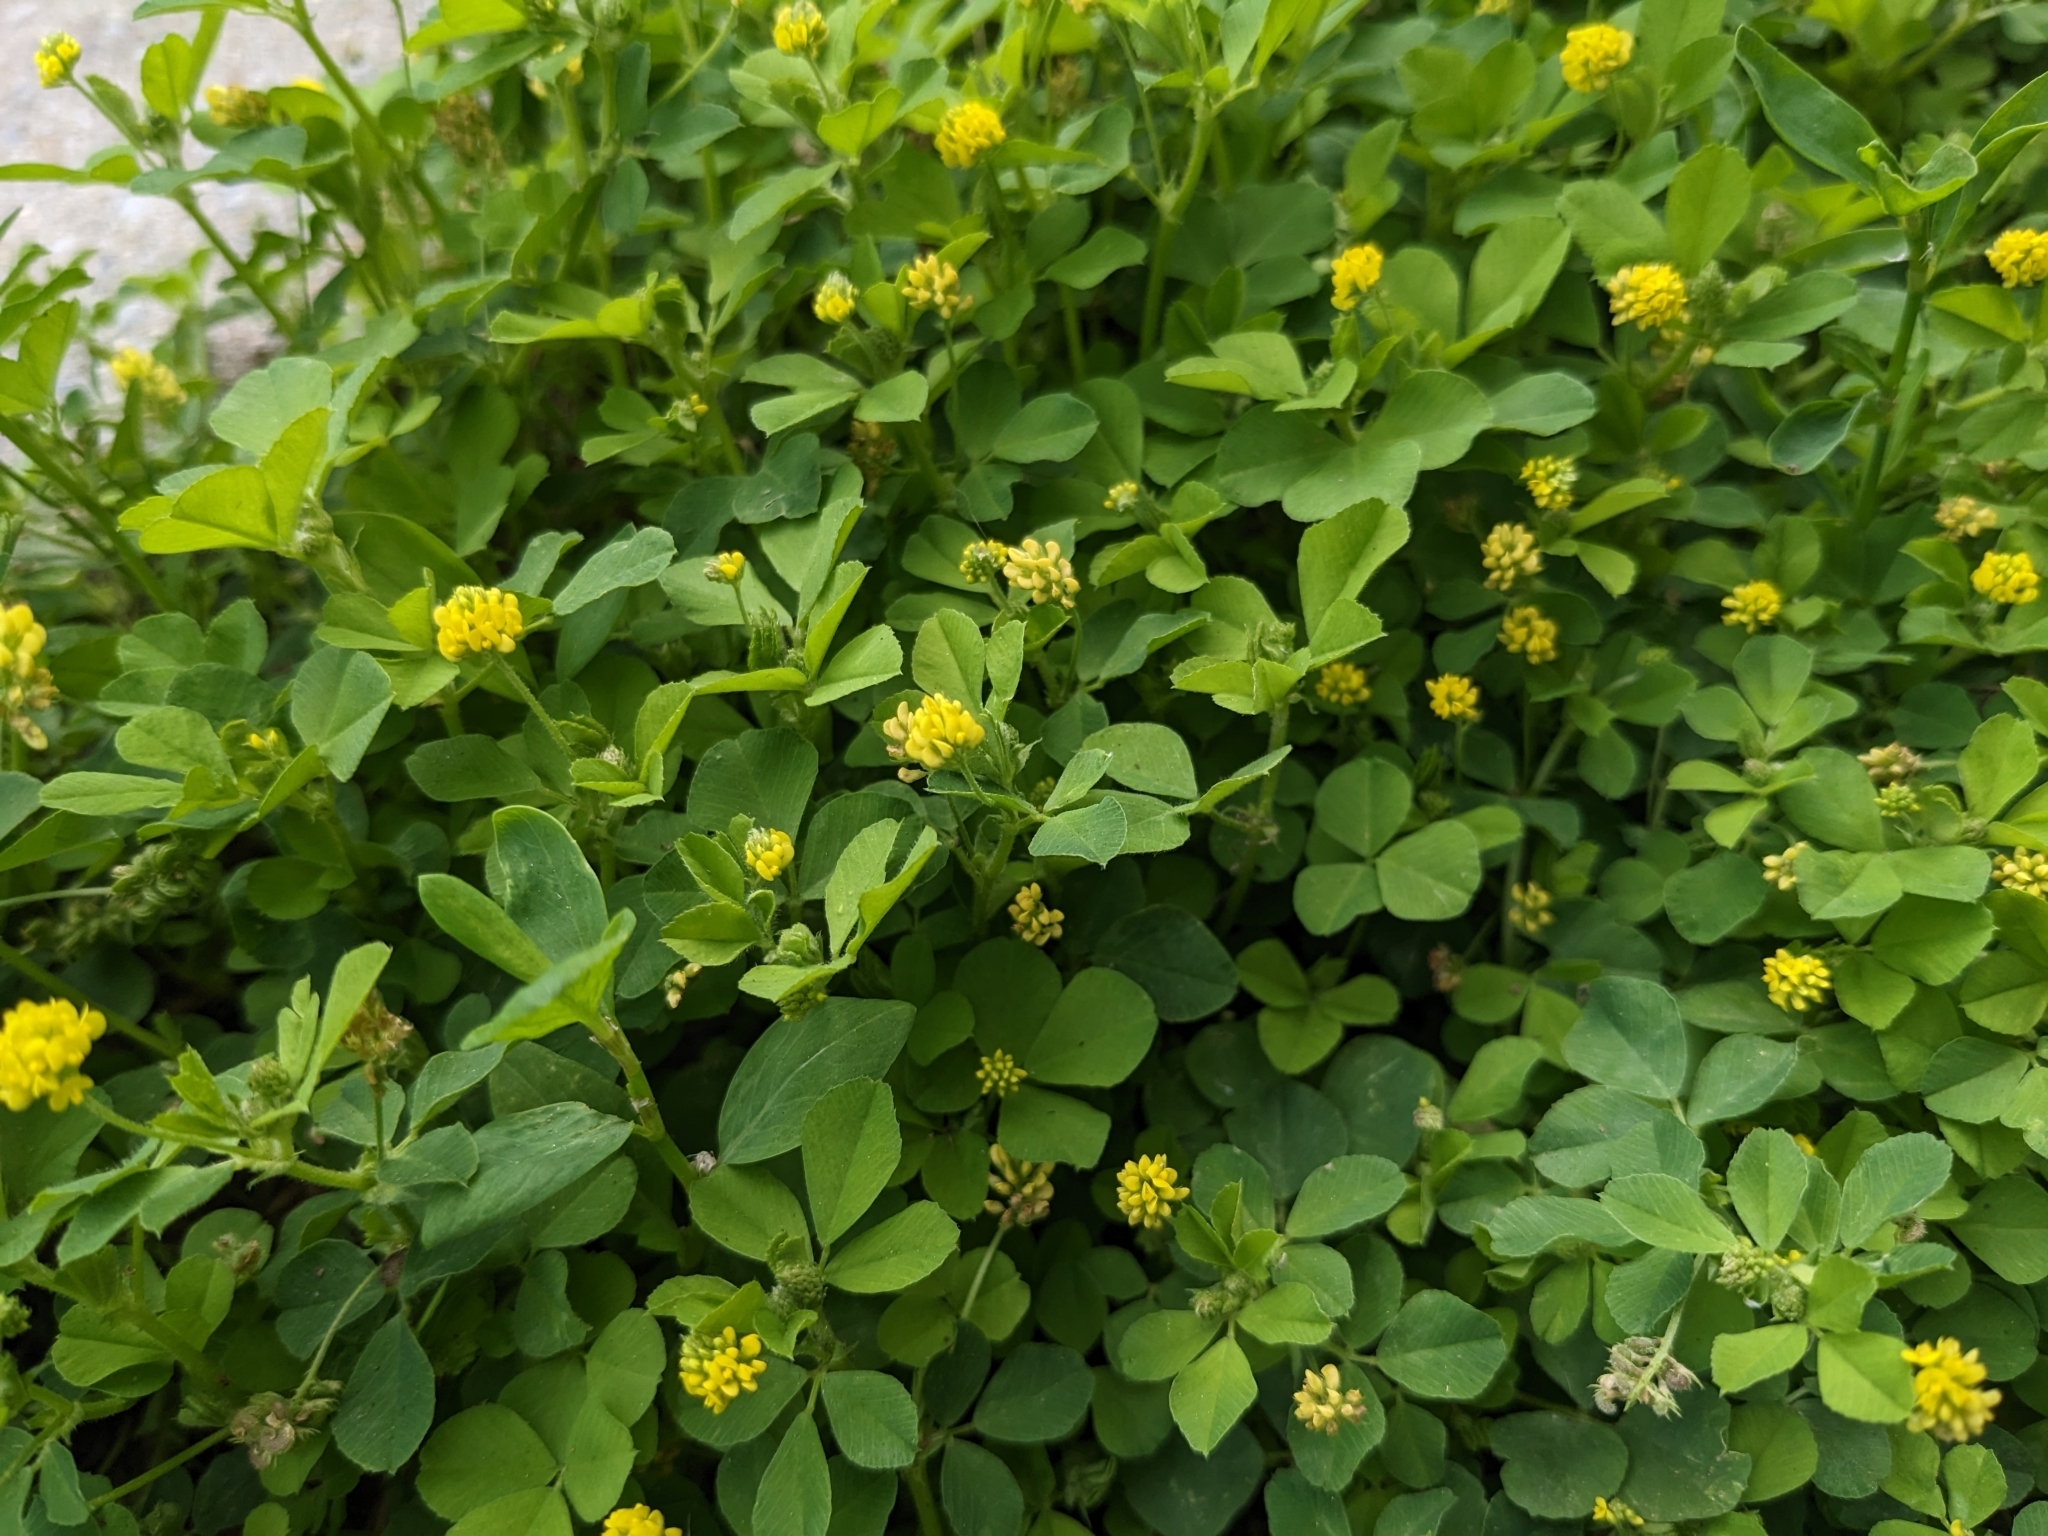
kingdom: Plantae
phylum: Tracheophyta
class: Magnoliopsida
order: Fabales
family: Fabaceae
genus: Medicago
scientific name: Medicago lupulina
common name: Black medick
